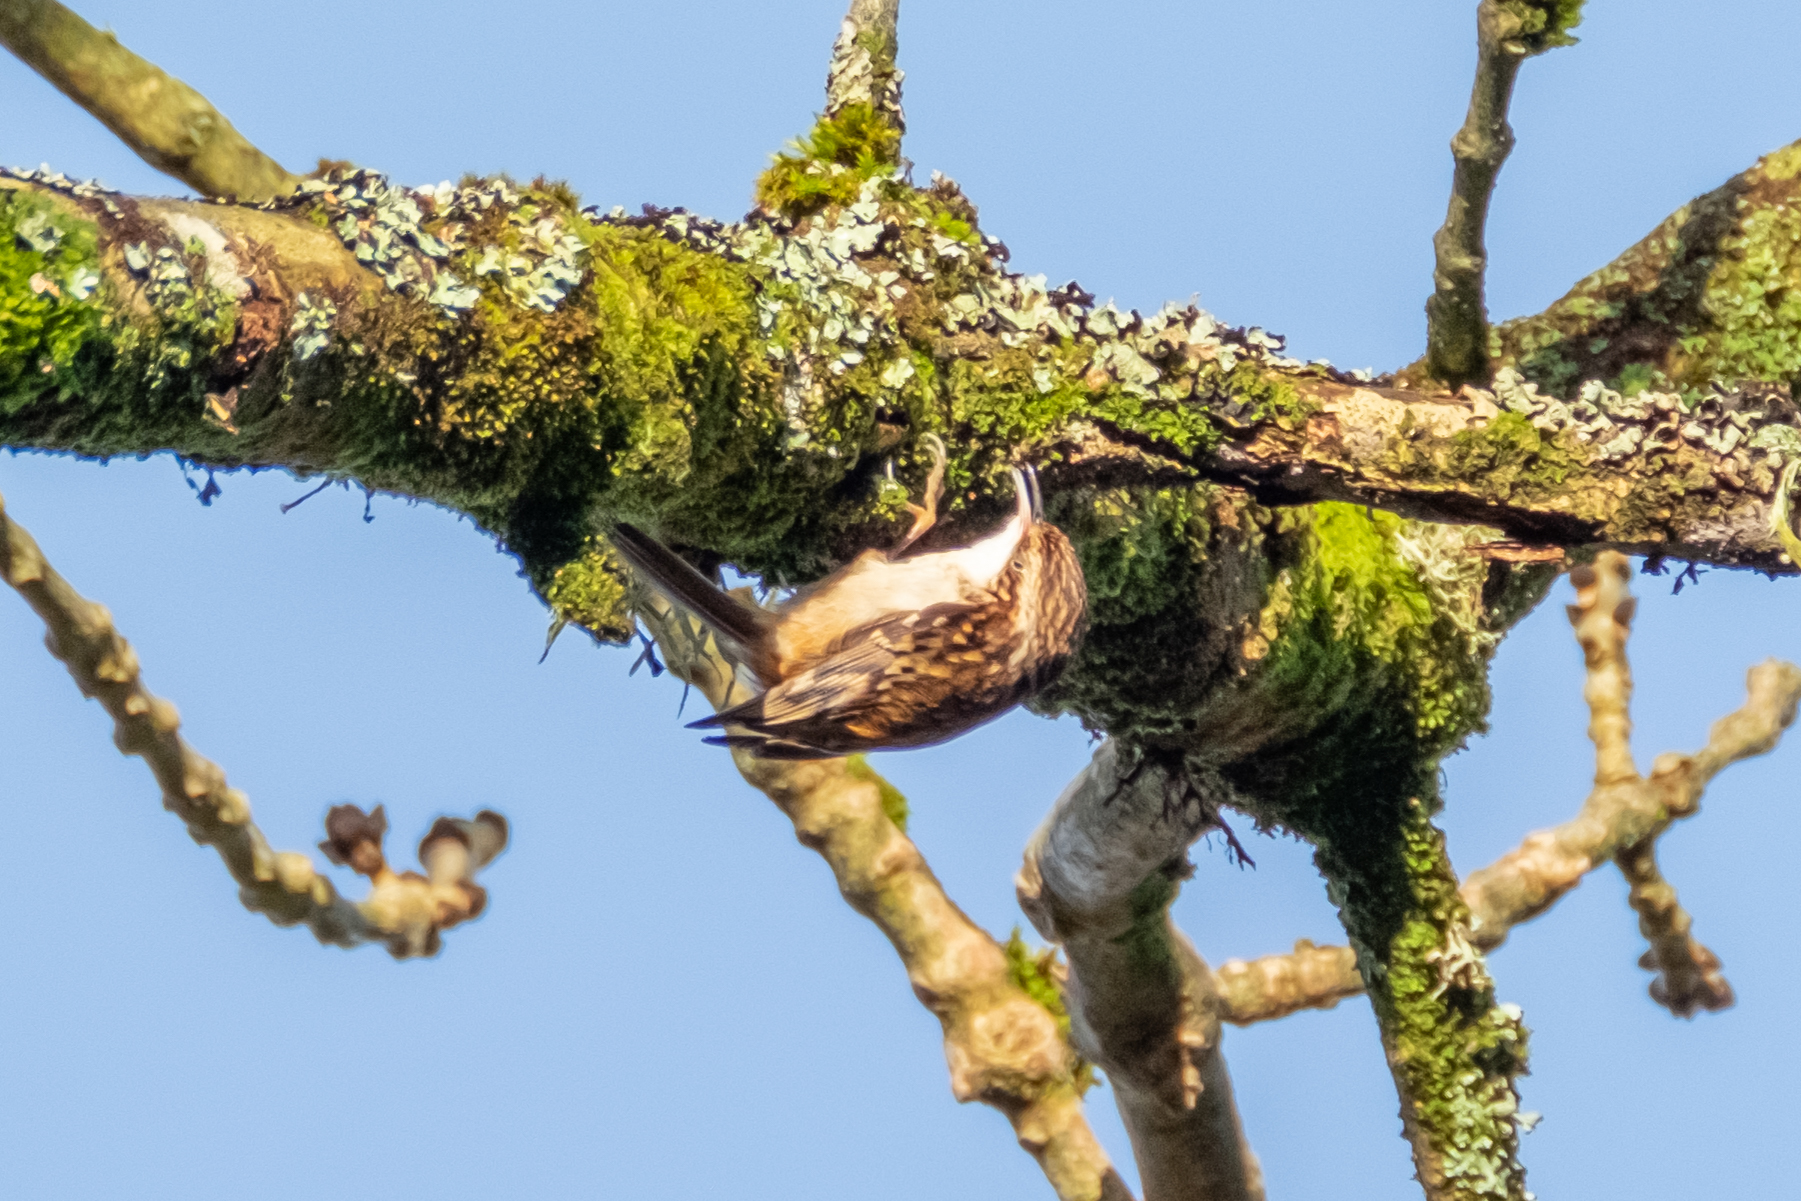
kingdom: Animalia
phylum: Chordata
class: Aves
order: Passeriformes
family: Certhiidae
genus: Certhia
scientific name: Certhia familiaris
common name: Eurasian treecreeper
